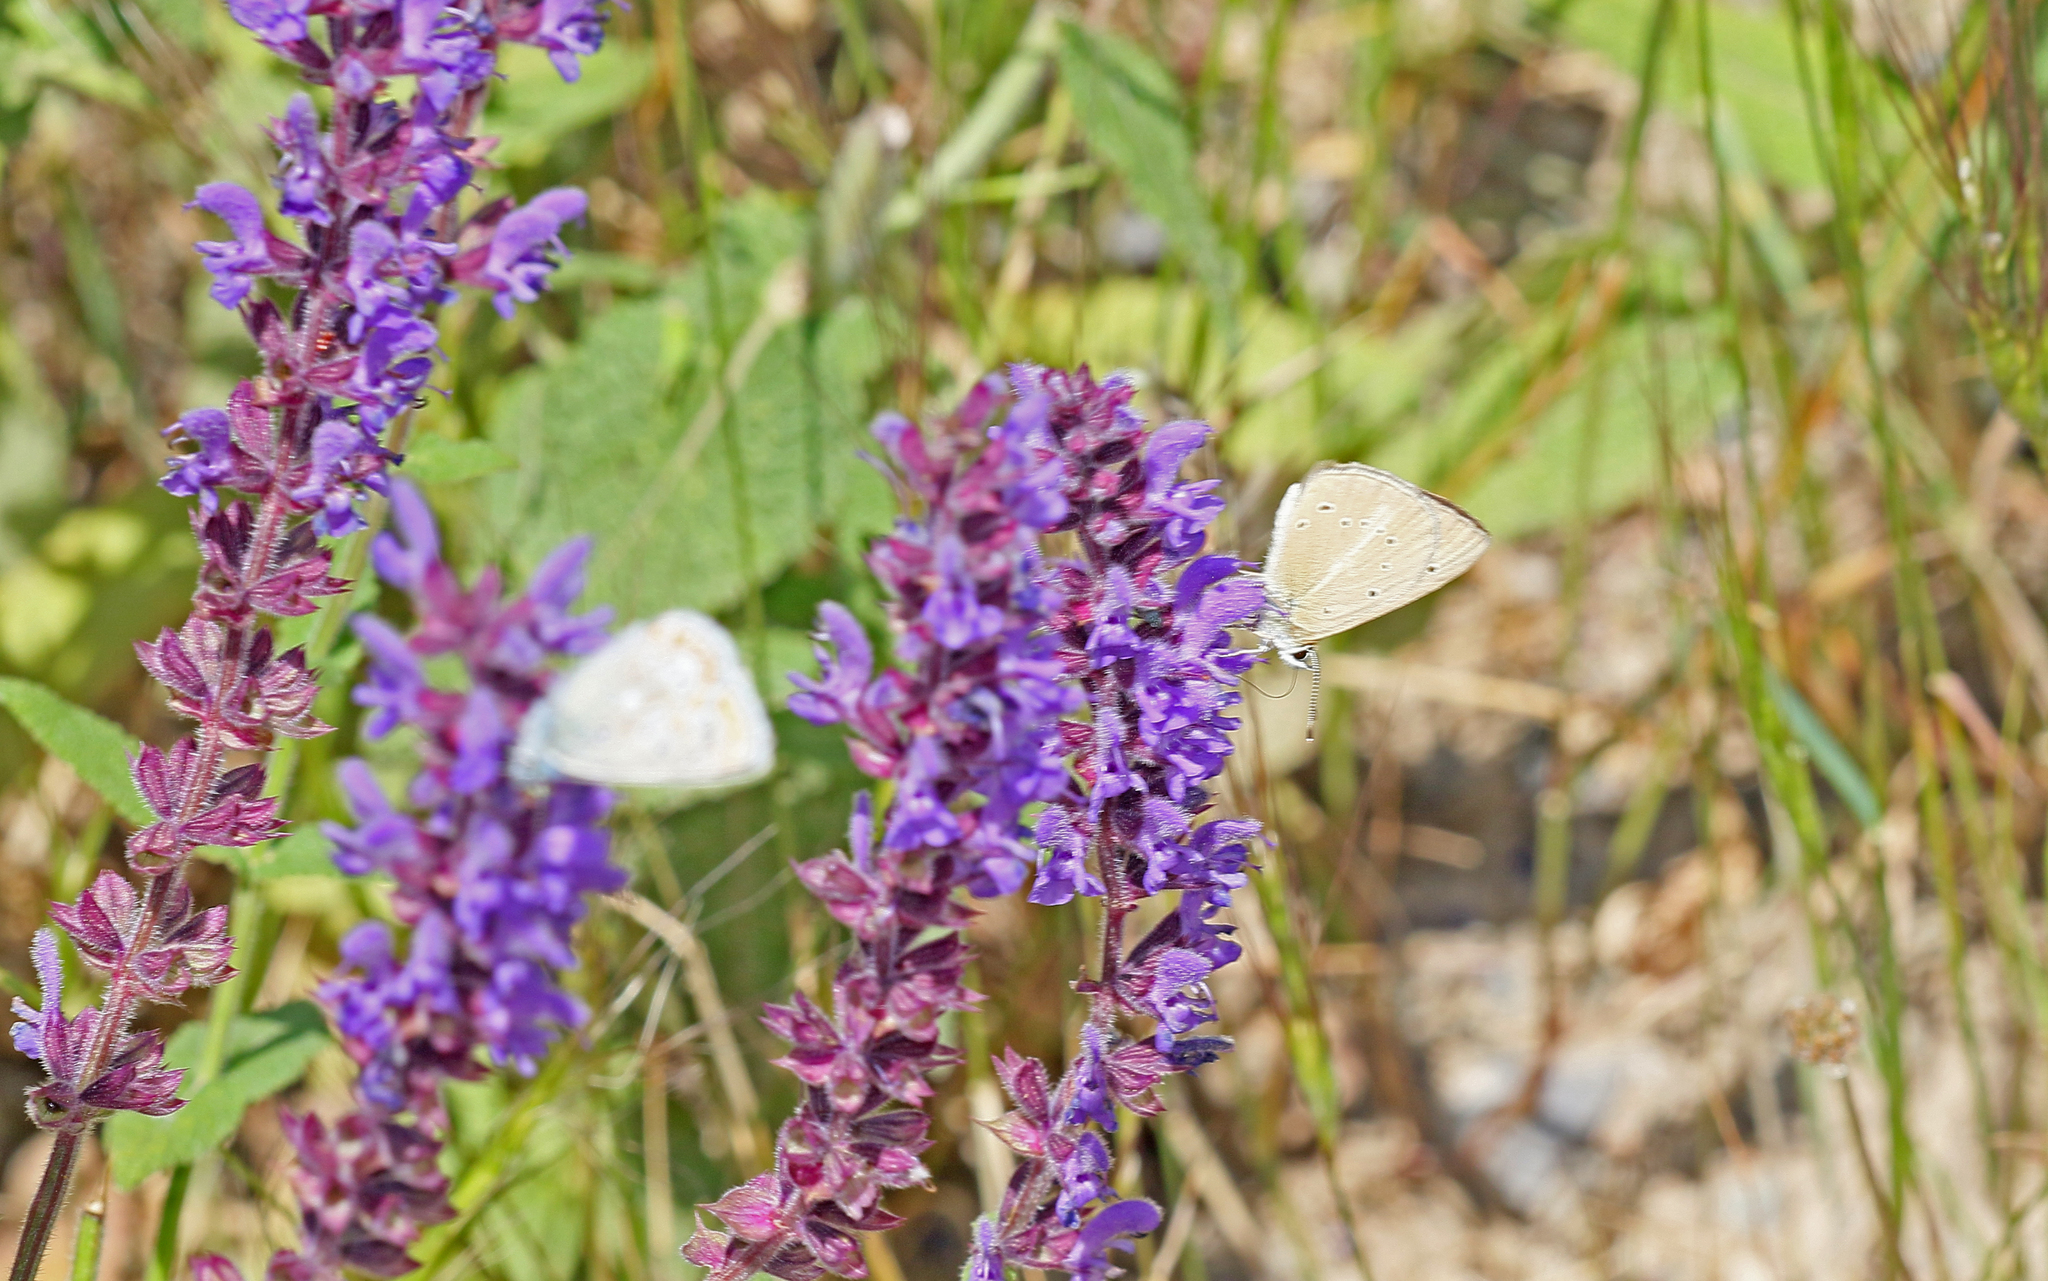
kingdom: Animalia
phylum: Arthropoda
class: Insecta
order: Lepidoptera
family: Lycaenidae
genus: Polyommatus
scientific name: Polyommatus ripartii
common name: Ripart's anomalous blue
